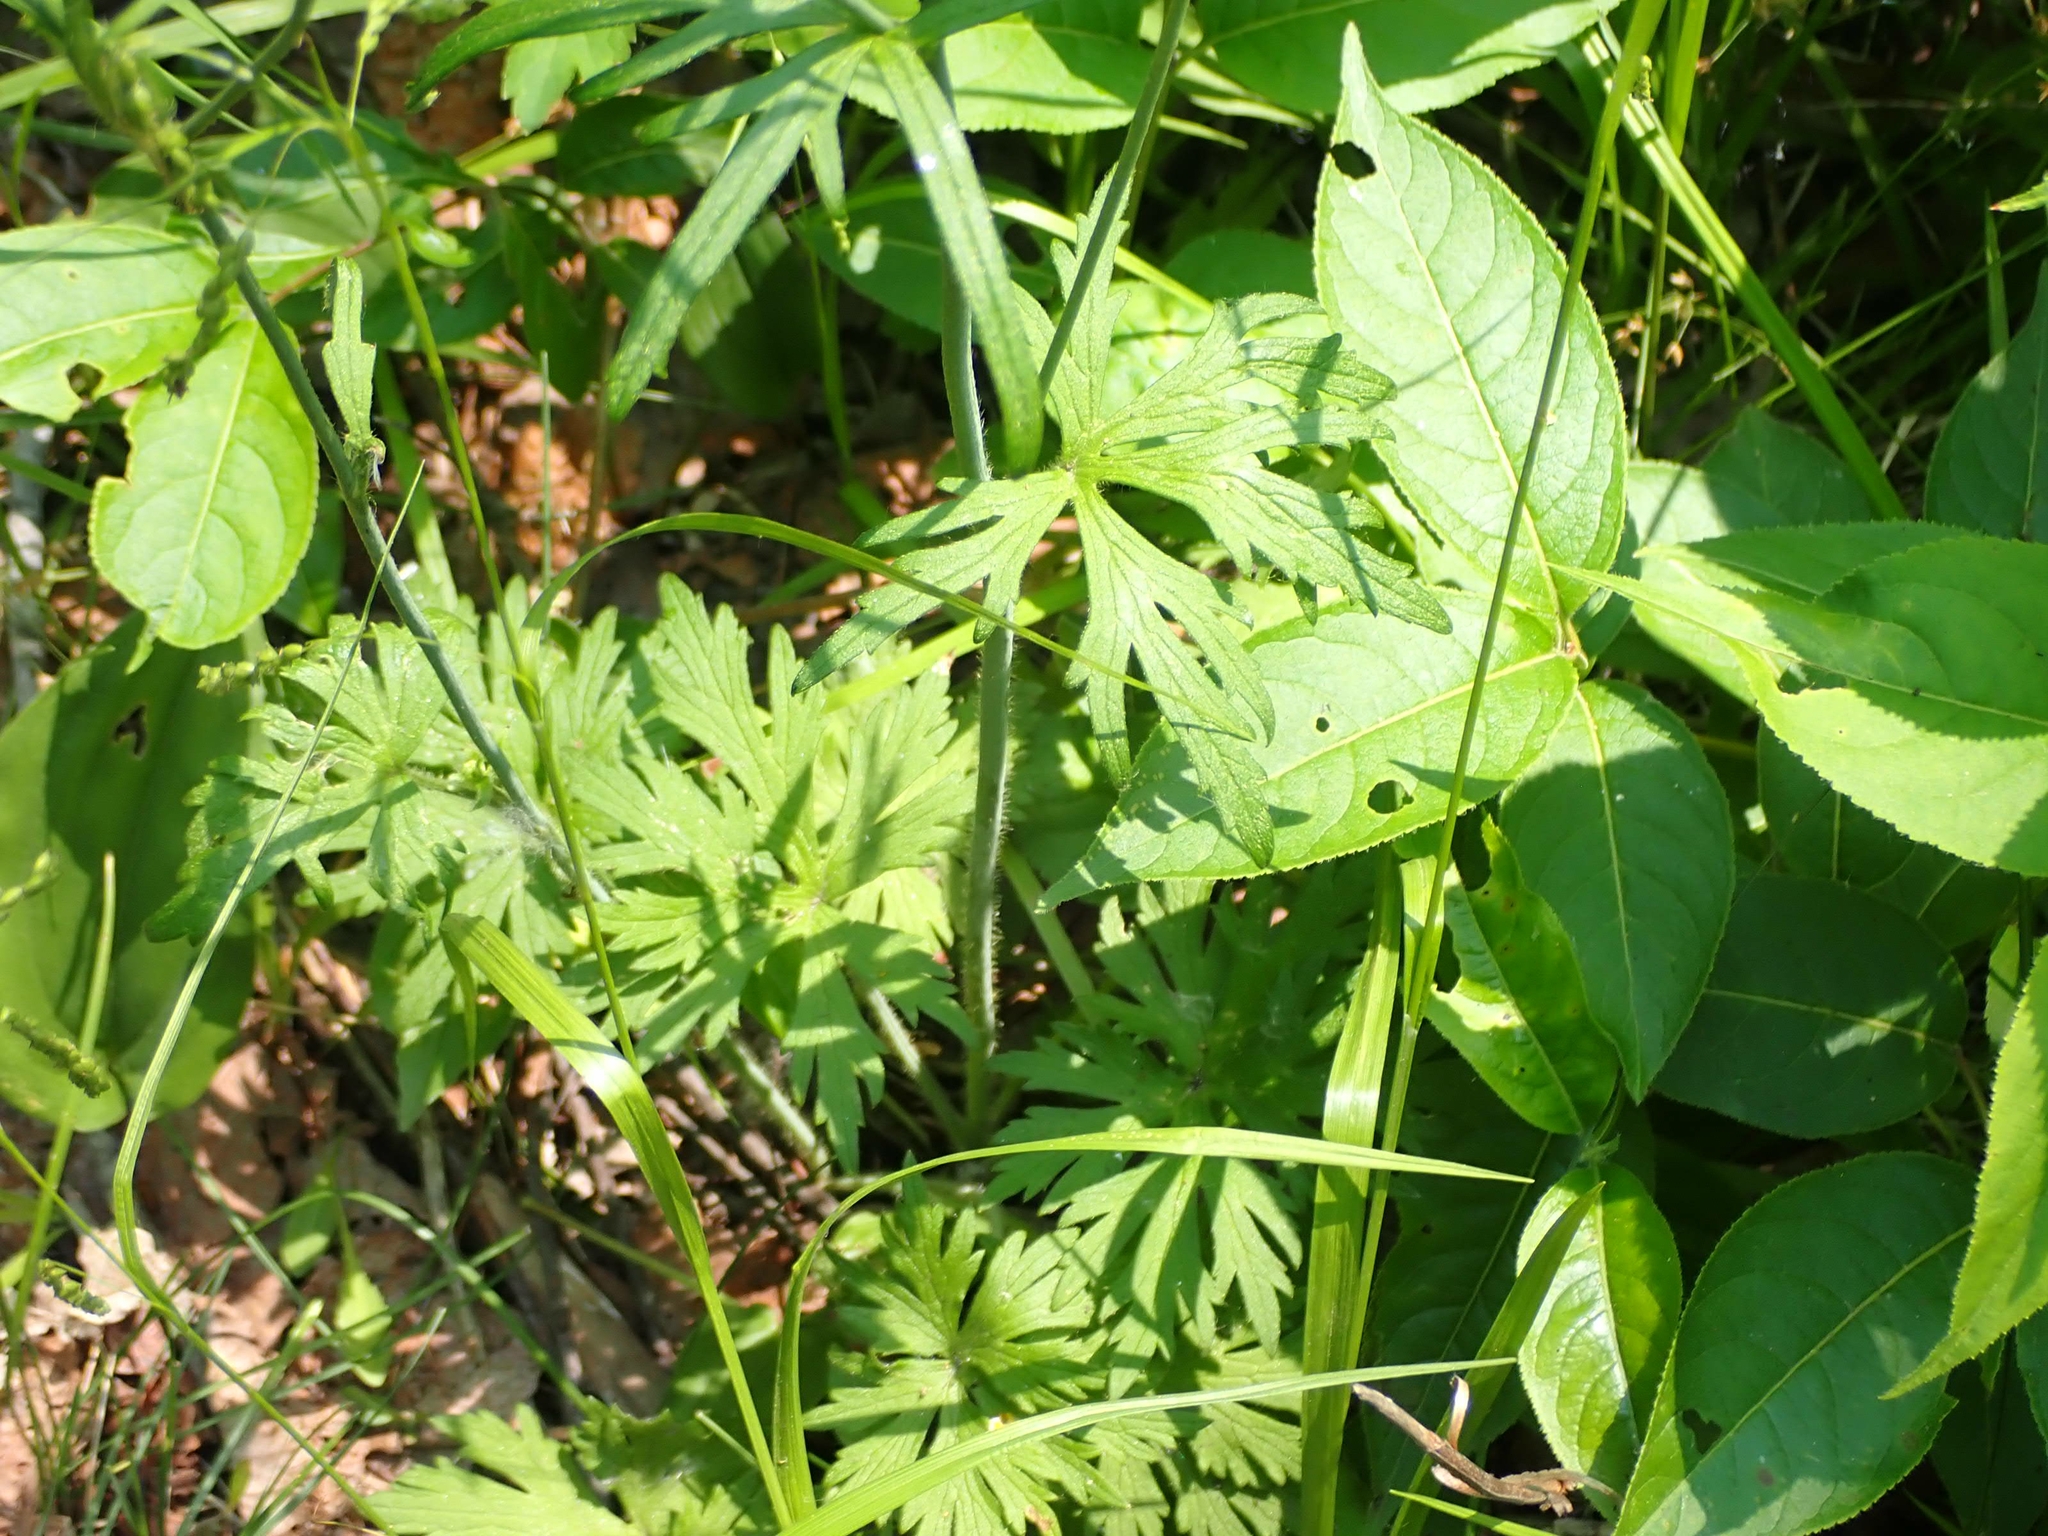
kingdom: Plantae
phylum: Tracheophyta
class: Magnoliopsida
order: Ranunculales
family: Ranunculaceae
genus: Ranunculus
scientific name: Ranunculus acris
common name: Meadow buttercup
